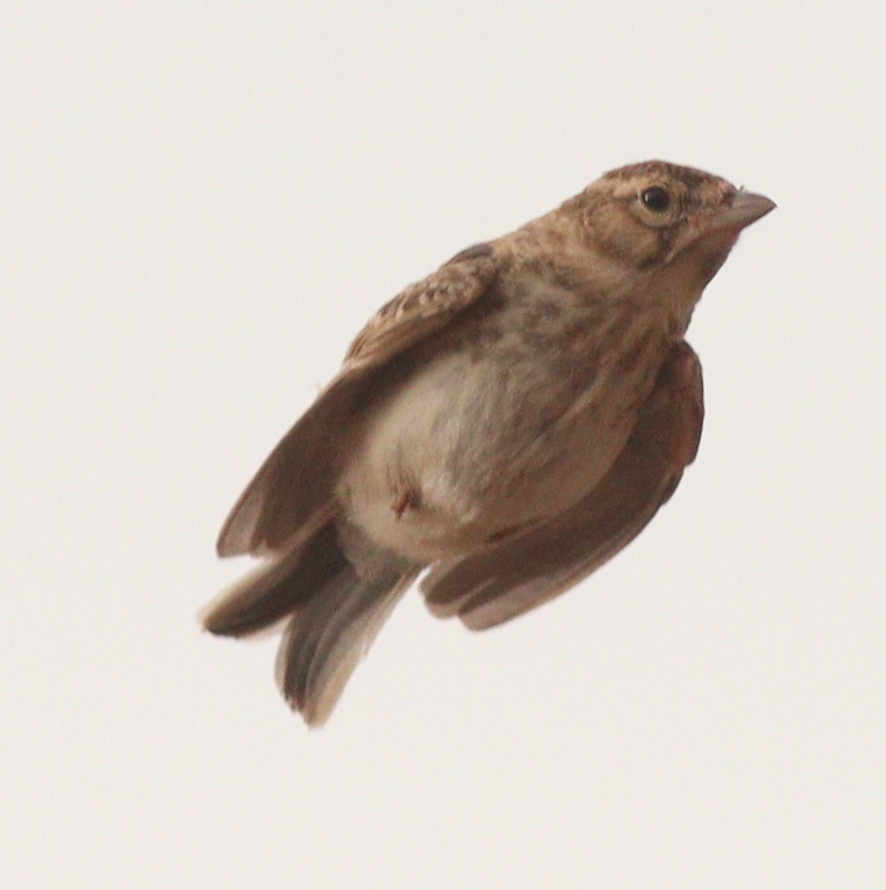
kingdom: Animalia
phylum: Chordata
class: Aves
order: Passeriformes
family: Alaudidae
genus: Calandrella
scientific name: Calandrella rufescens
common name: Lesser short-toed lark
